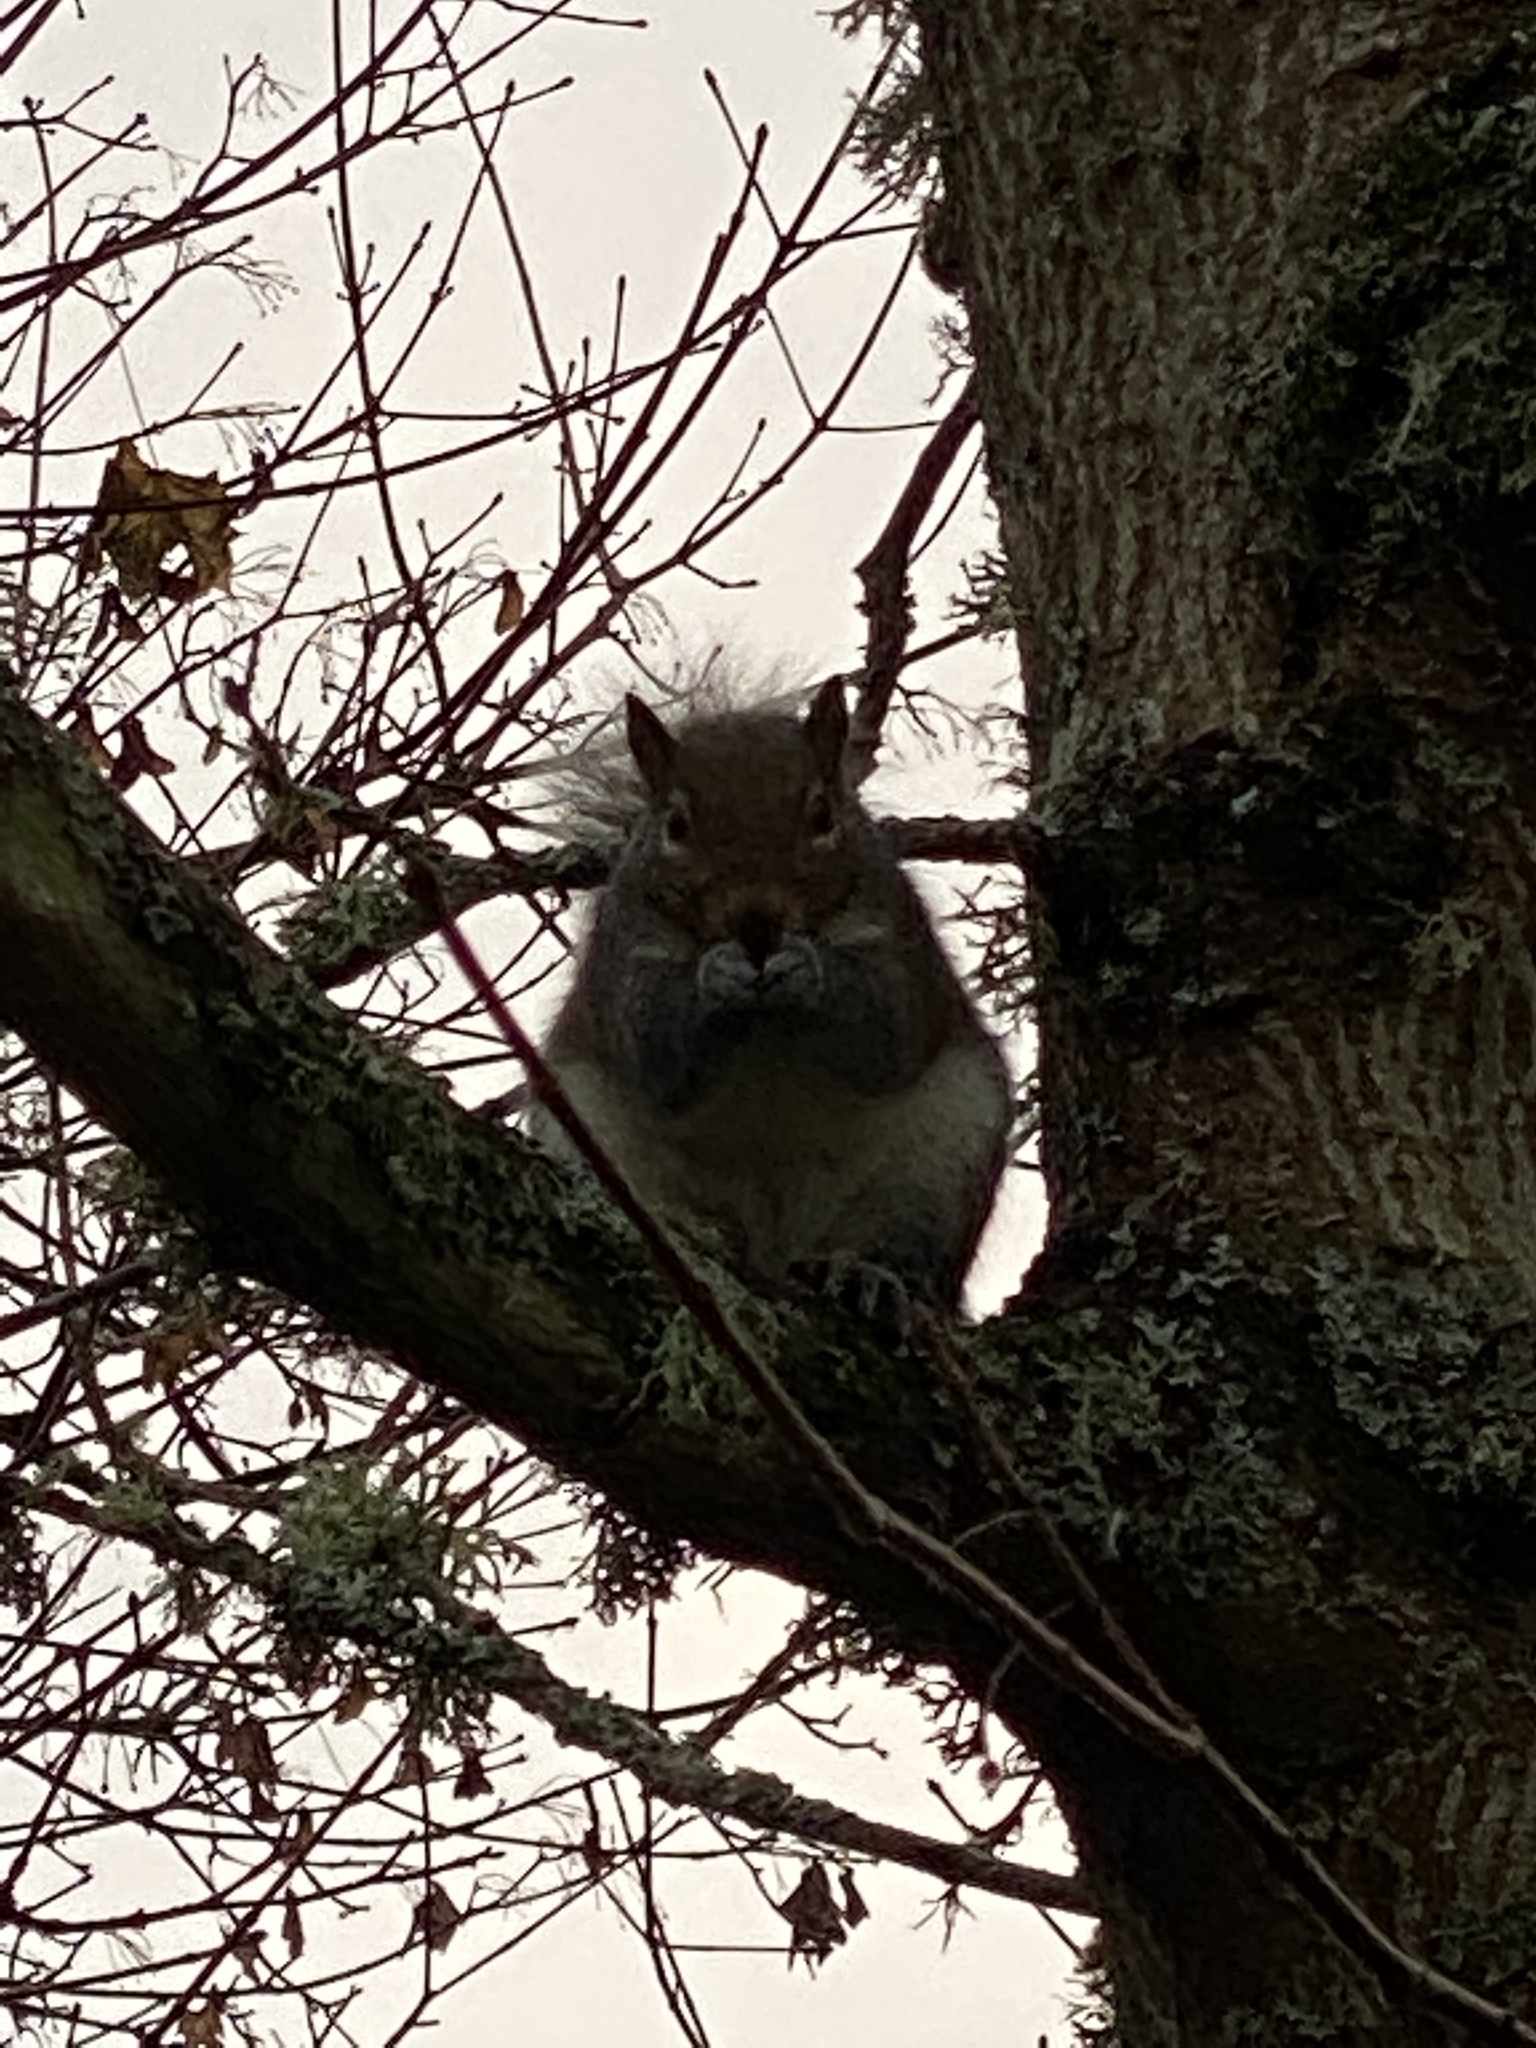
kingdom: Animalia
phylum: Chordata
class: Mammalia
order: Rodentia
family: Sciuridae
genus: Sciurus
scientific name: Sciurus carolinensis
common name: Eastern gray squirrel
